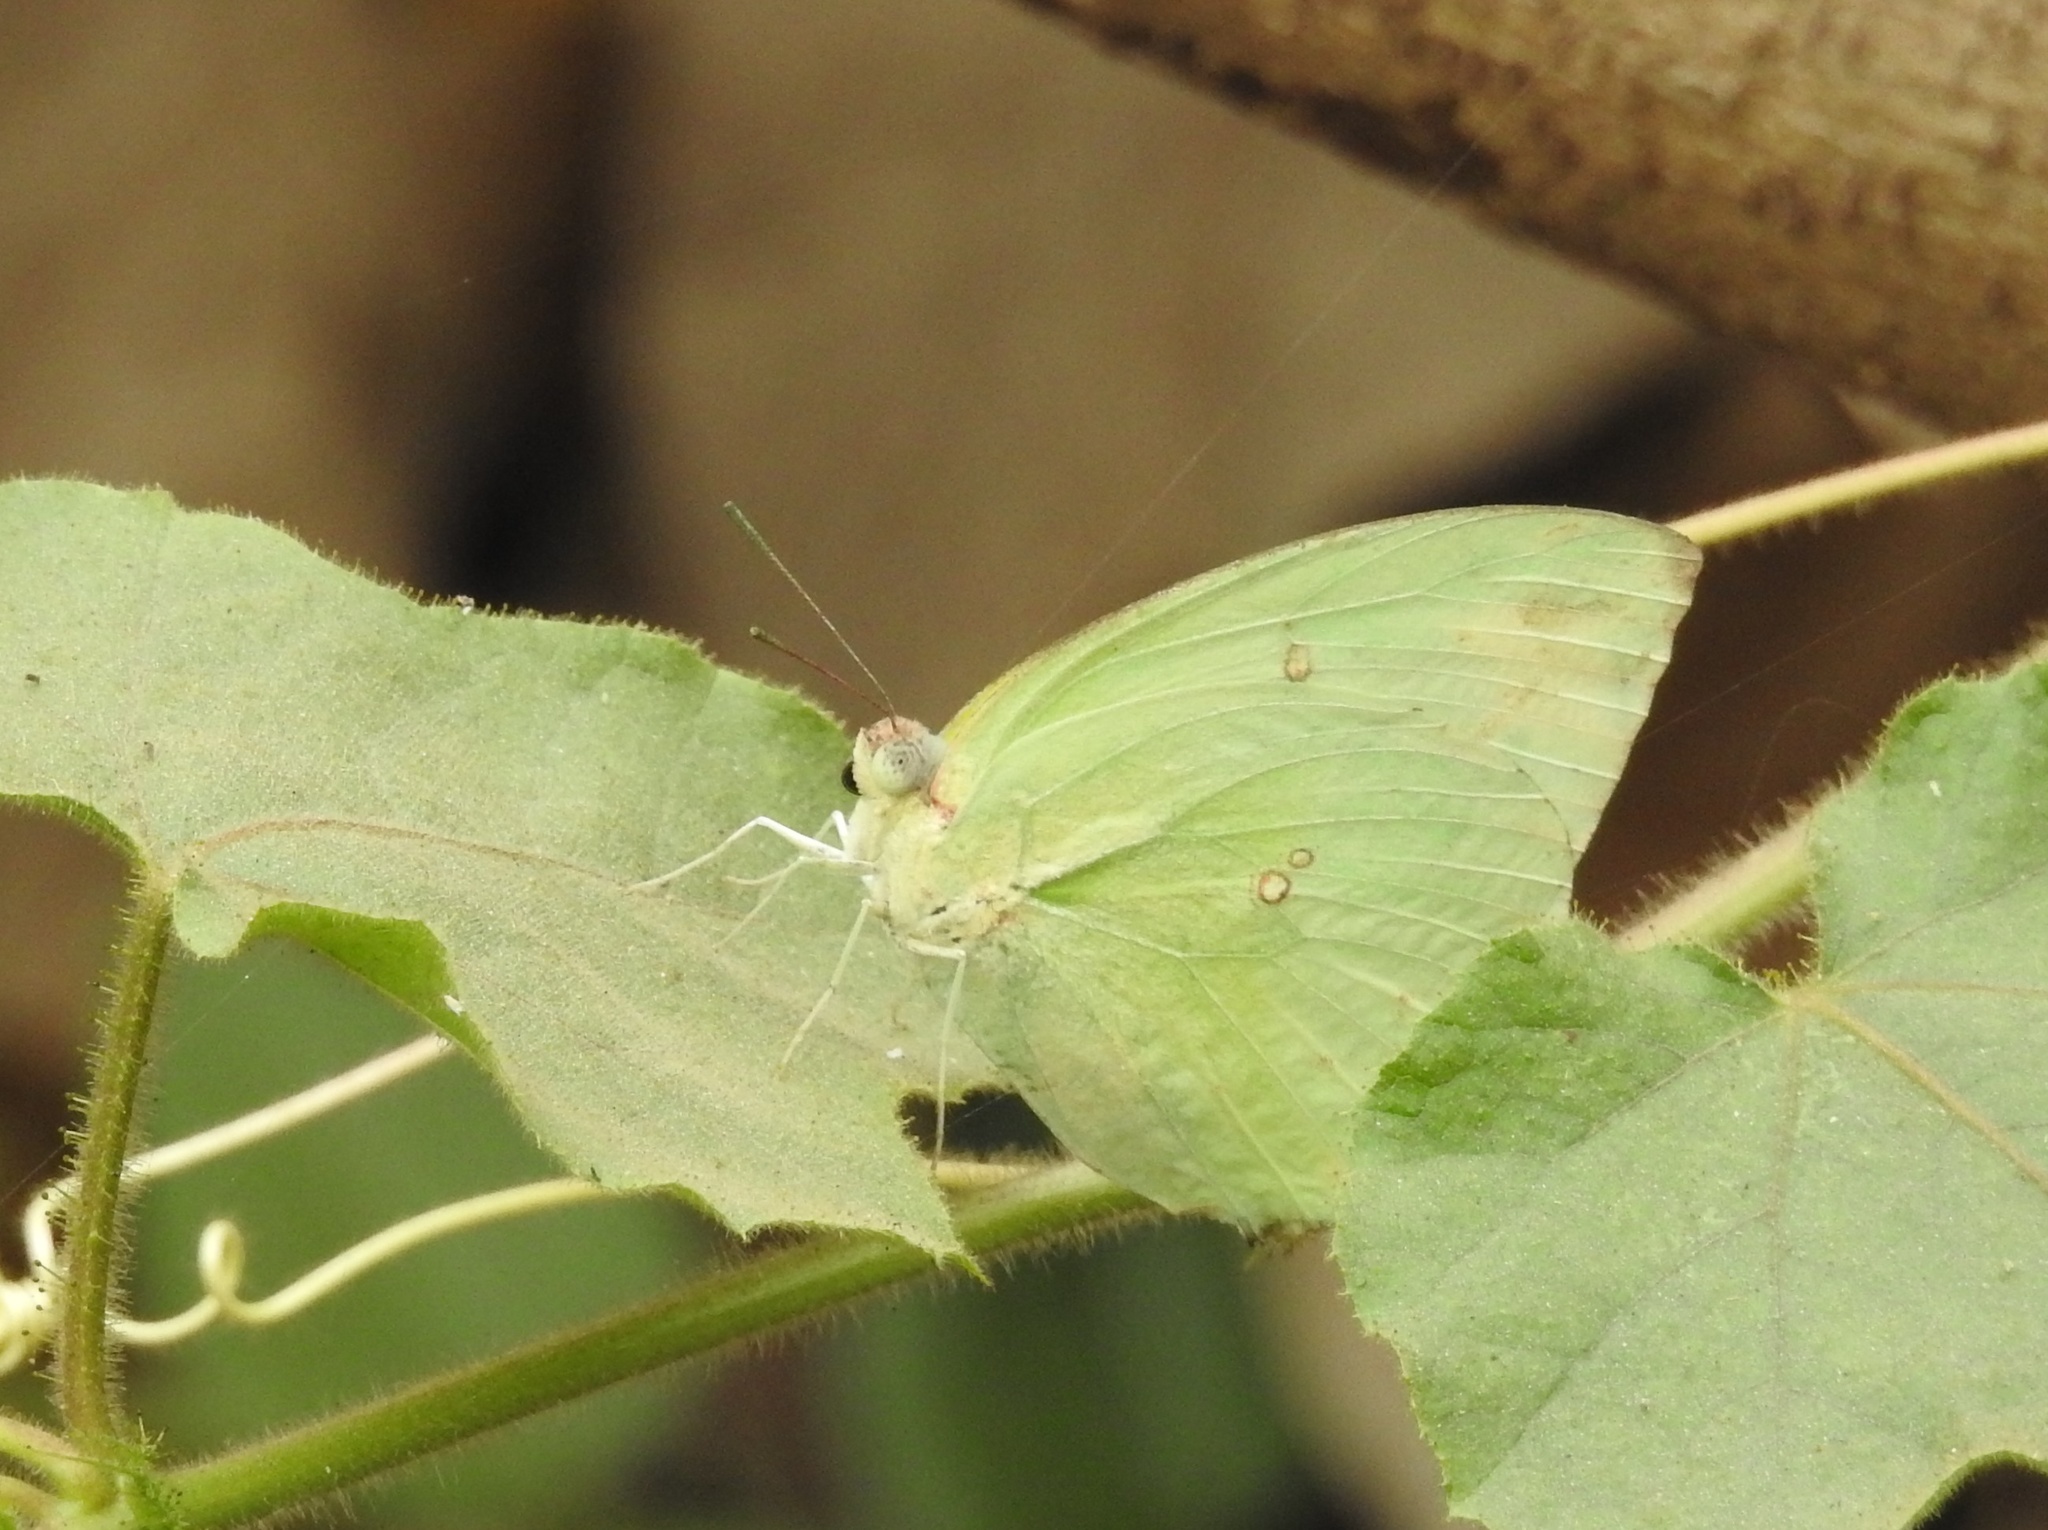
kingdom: Animalia
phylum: Arthropoda
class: Insecta
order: Lepidoptera
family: Pieridae
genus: Catopsilia
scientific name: Catopsilia pomona
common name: Common emigrant
